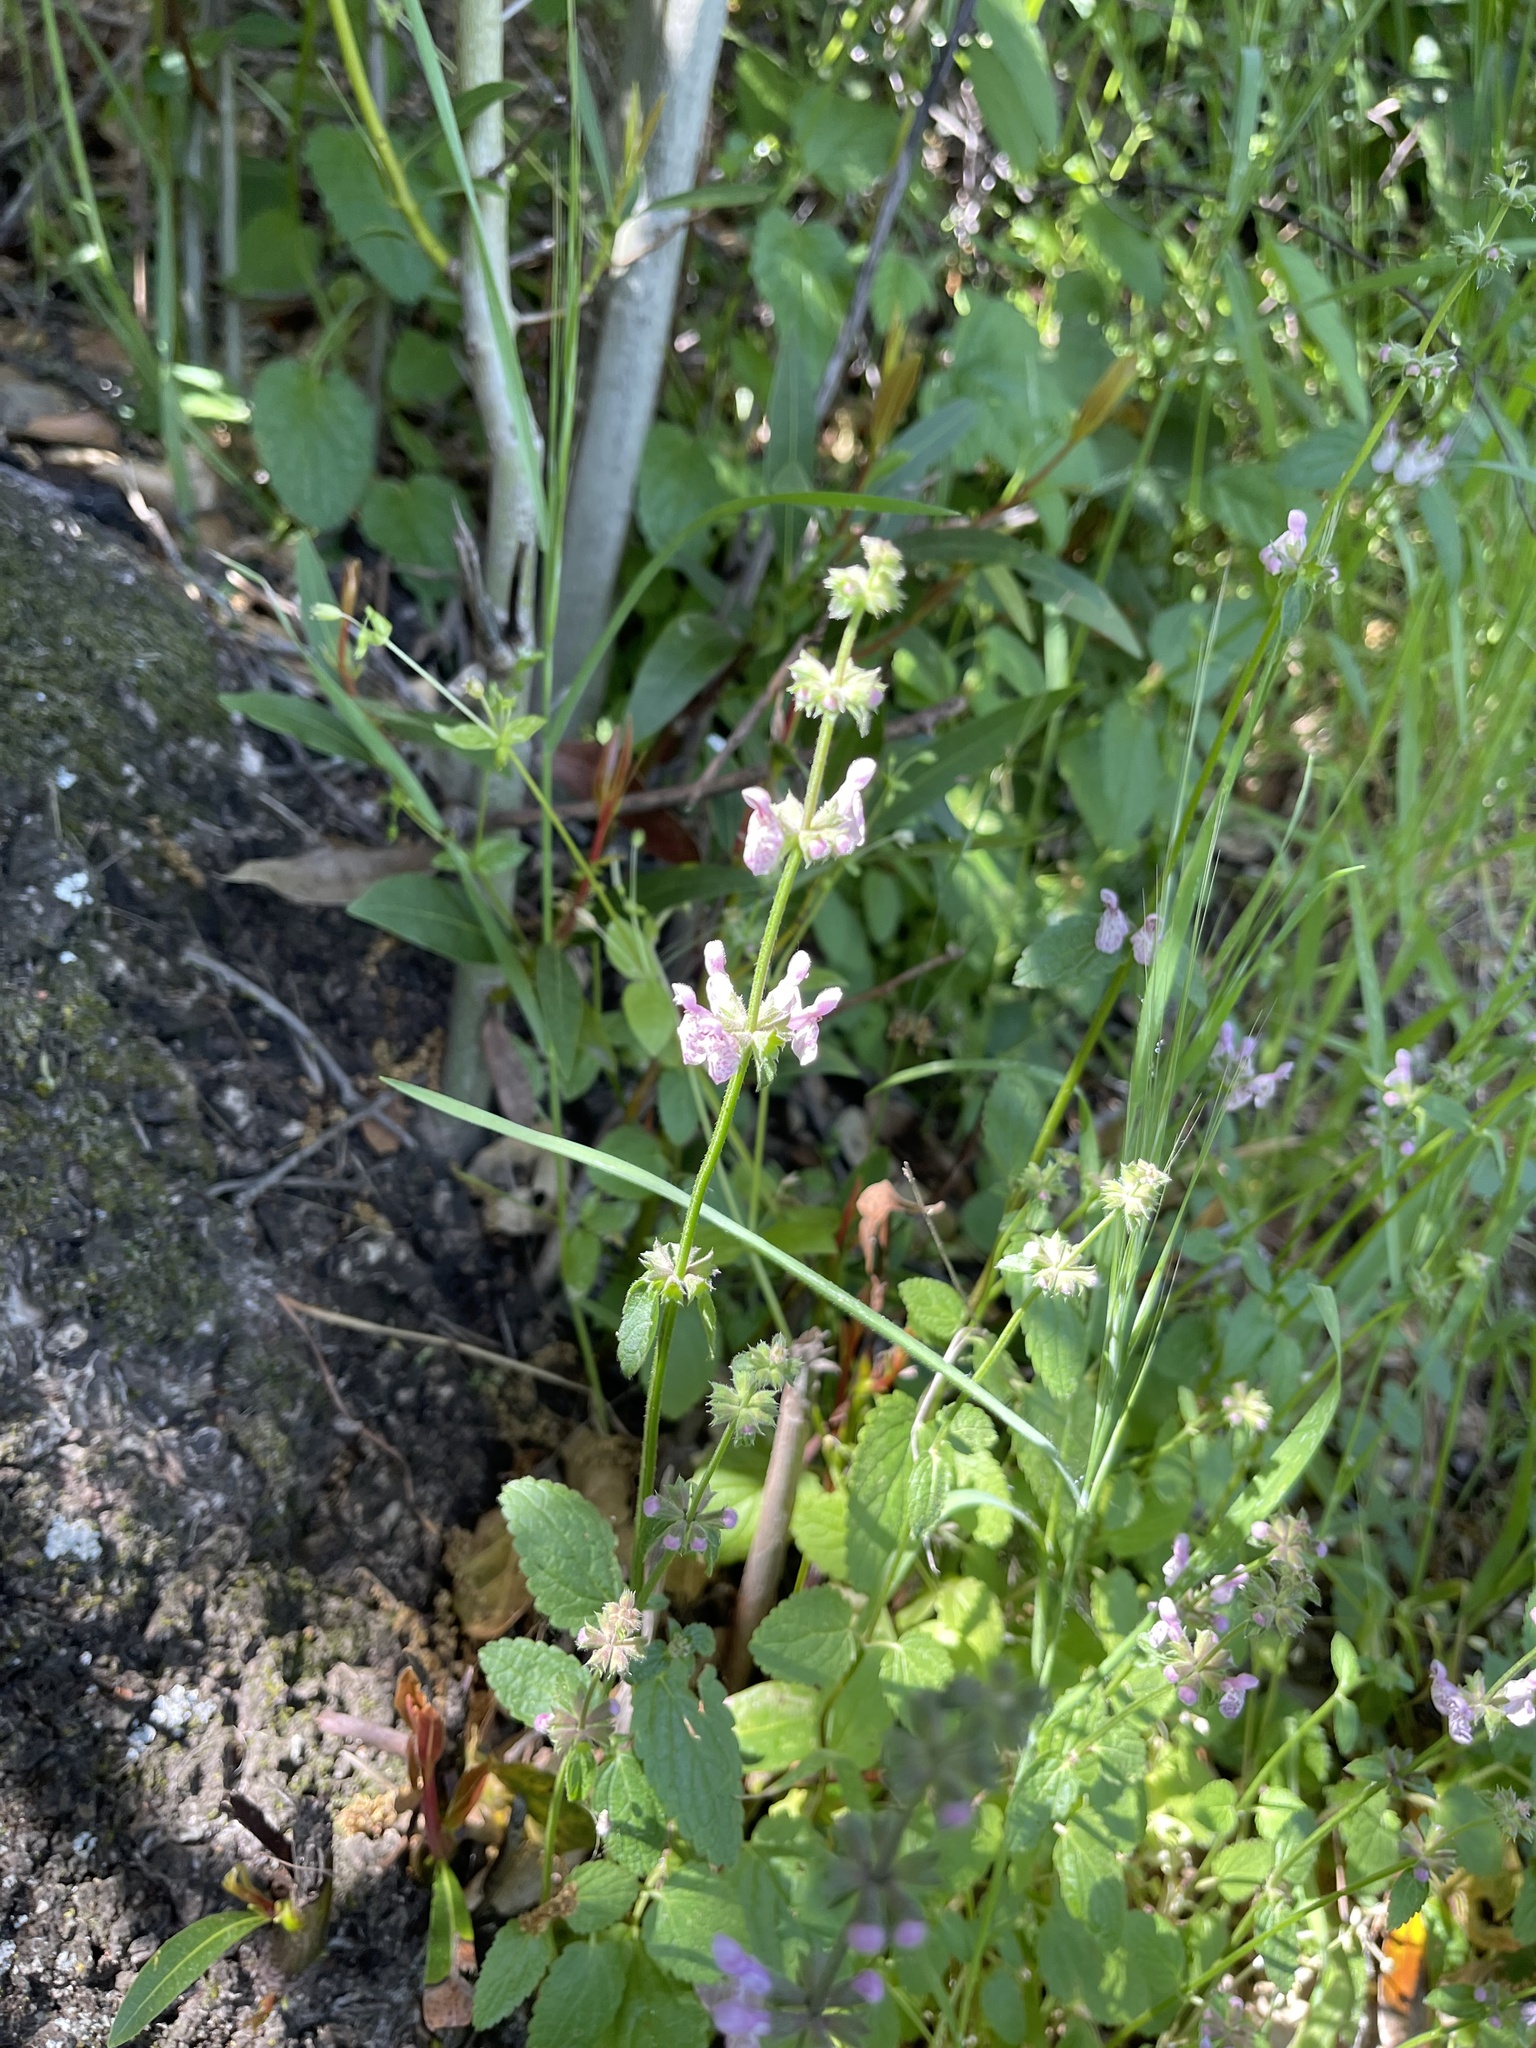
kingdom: Plantae
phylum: Tracheophyta
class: Magnoliopsida
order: Lamiales
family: Lamiaceae
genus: Stachys
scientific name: Stachys rigida
